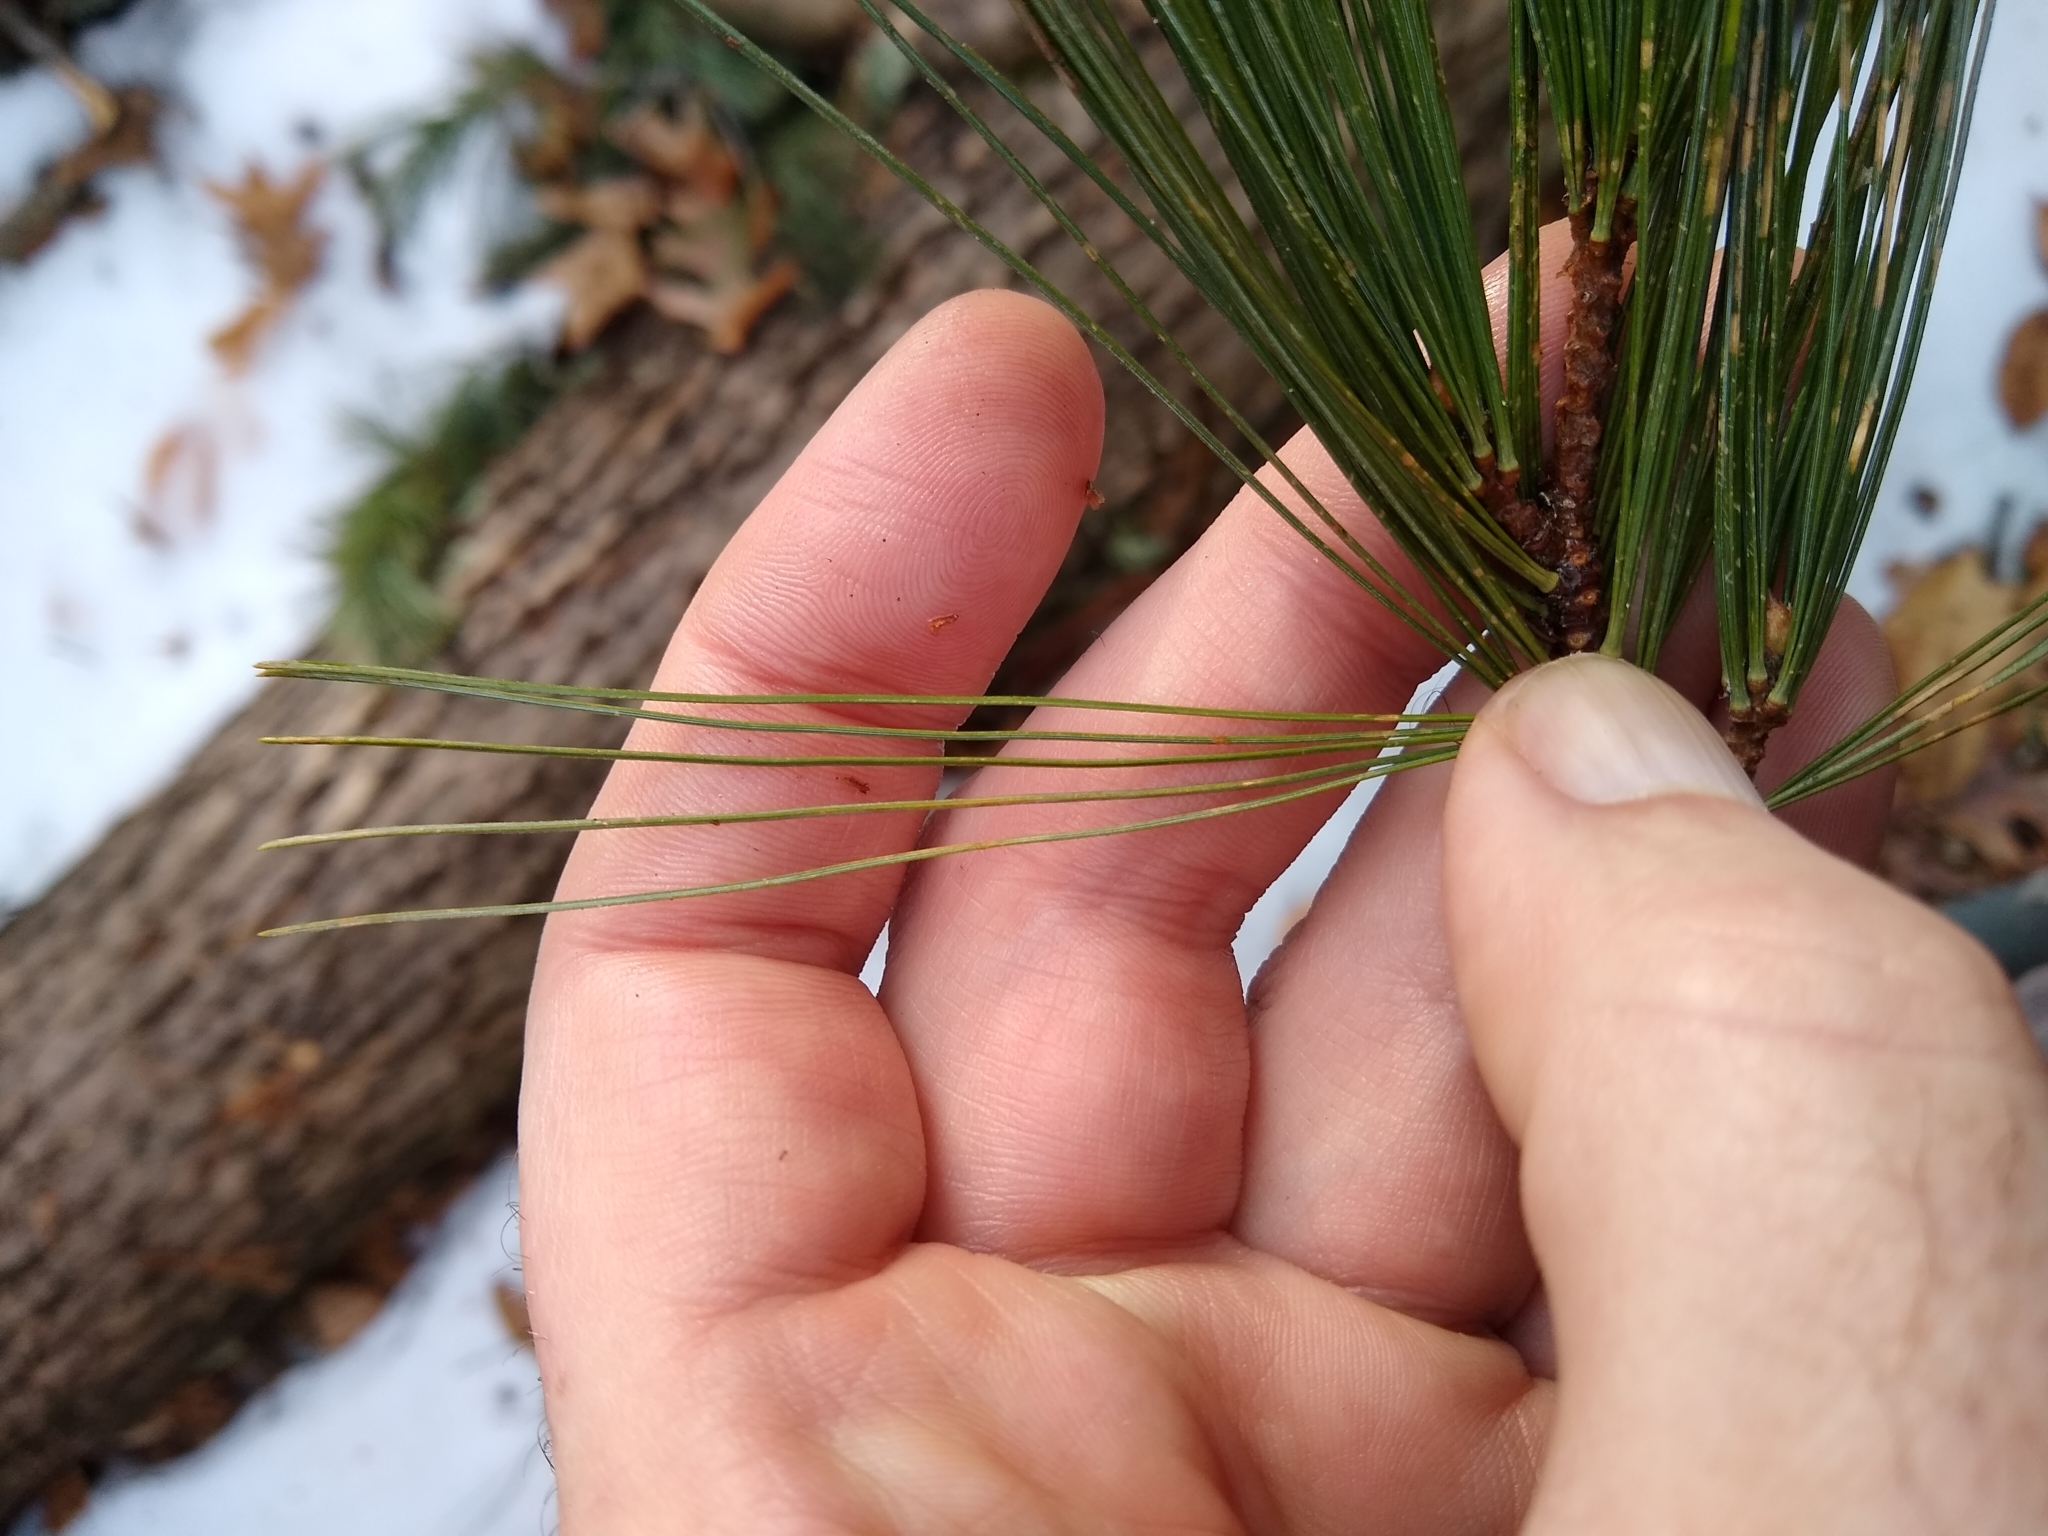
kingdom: Plantae
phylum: Tracheophyta
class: Pinopsida
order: Pinales
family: Pinaceae
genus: Pinus
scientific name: Pinus strobus
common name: Weymouth pine
